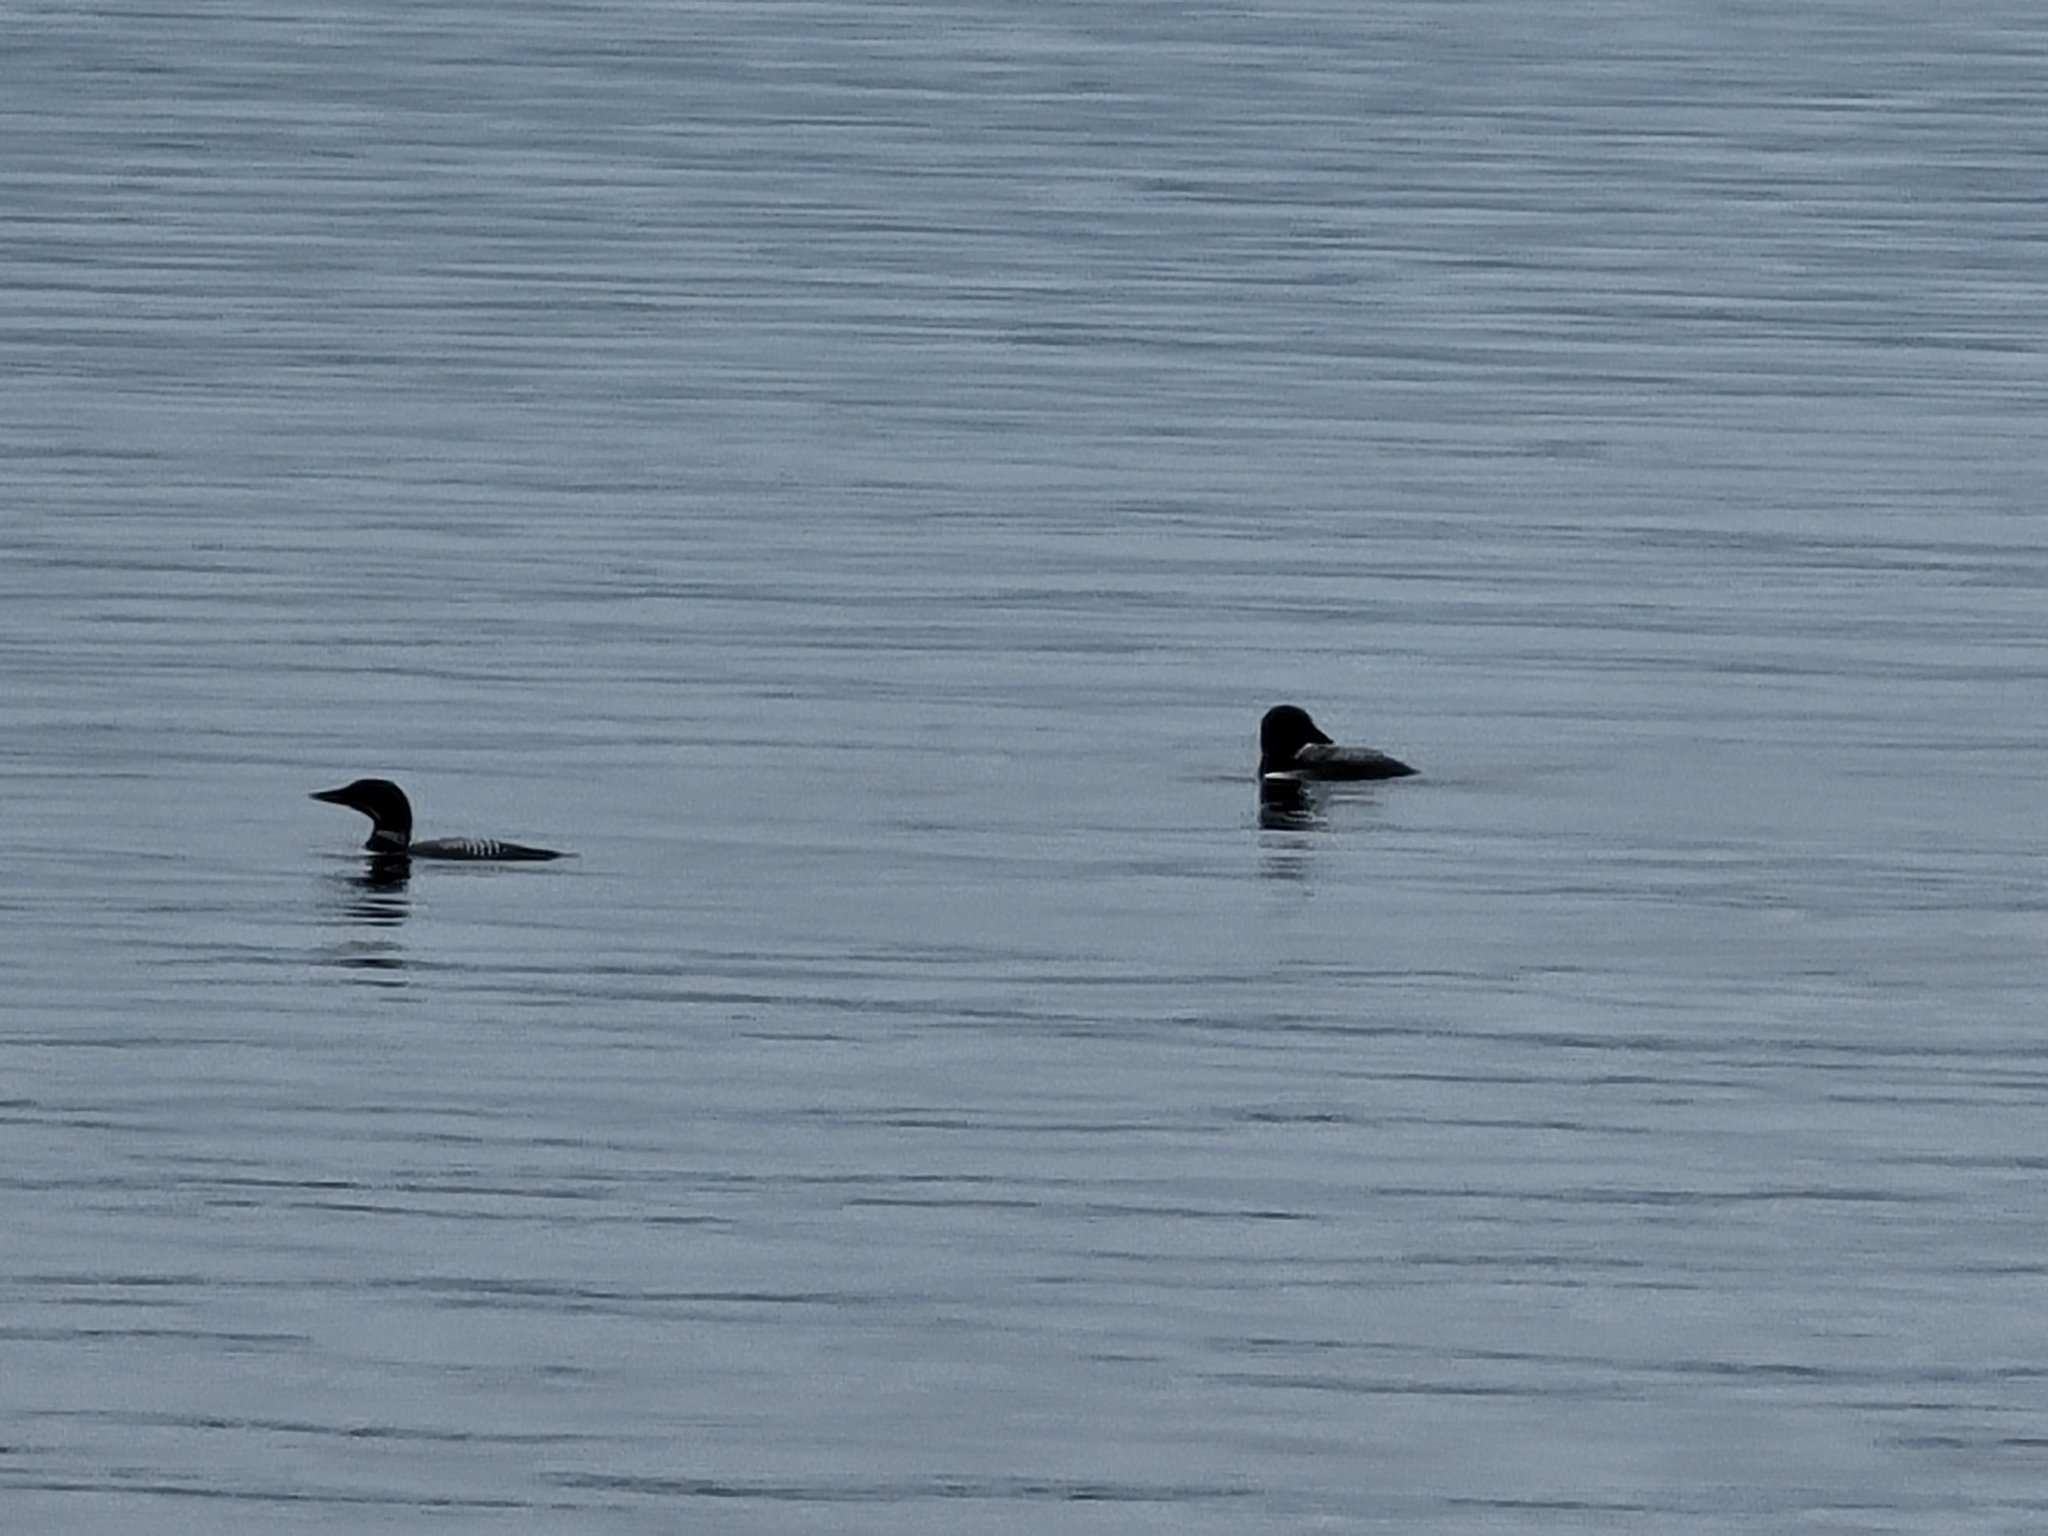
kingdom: Animalia
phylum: Chordata
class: Aves
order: Gaviiformes
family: Gaviidae
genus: Gavia
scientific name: Gavia immer
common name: Common loon
